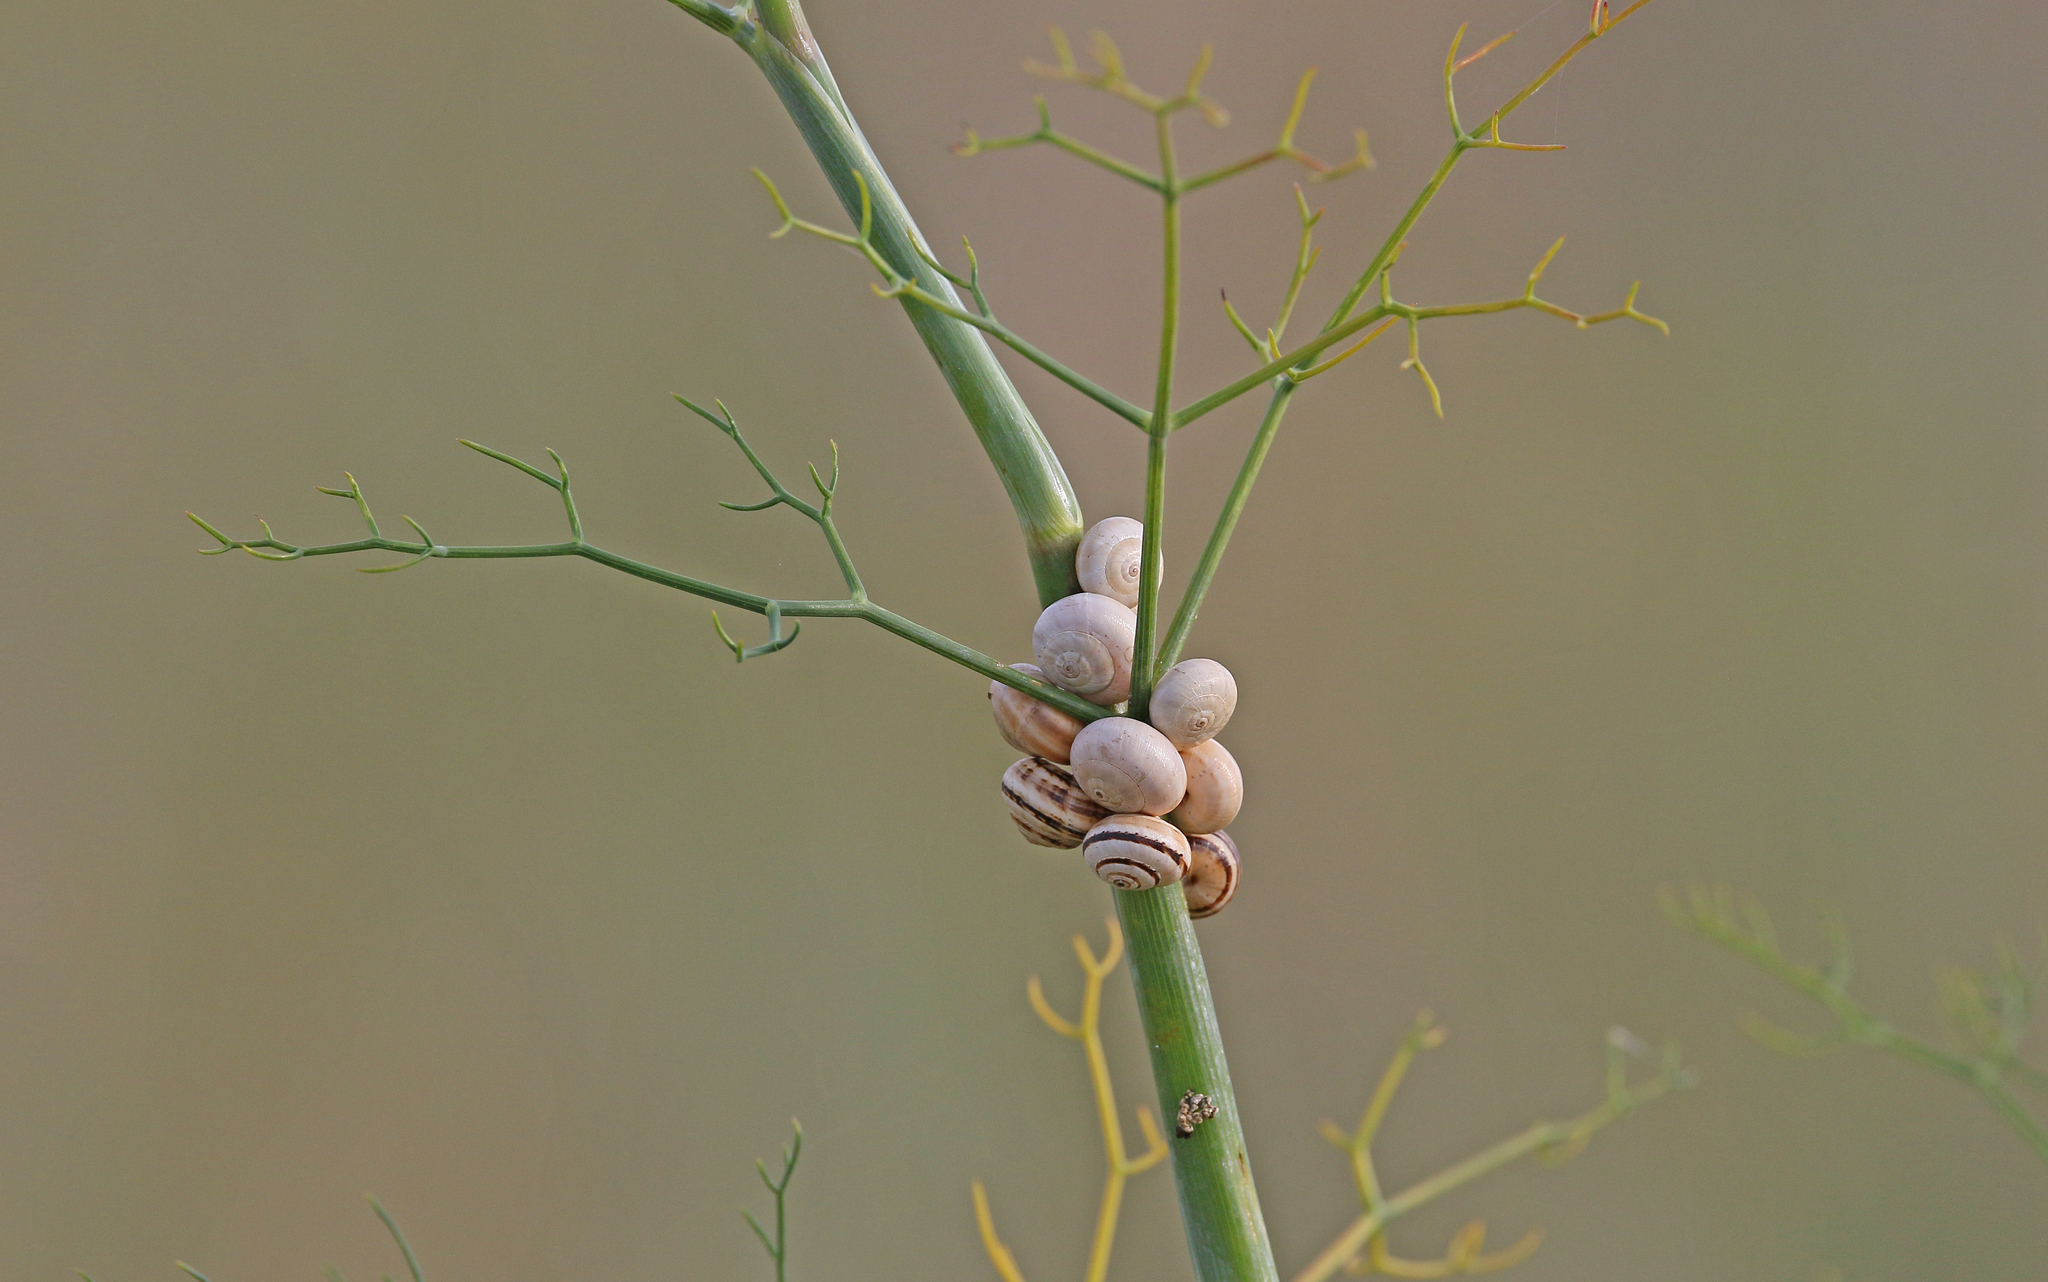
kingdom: Animalia
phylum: Mollusca
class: Gastropoda
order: Stylommatophora
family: Helicidae
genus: Theba
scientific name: Theba pisana
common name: White snail
